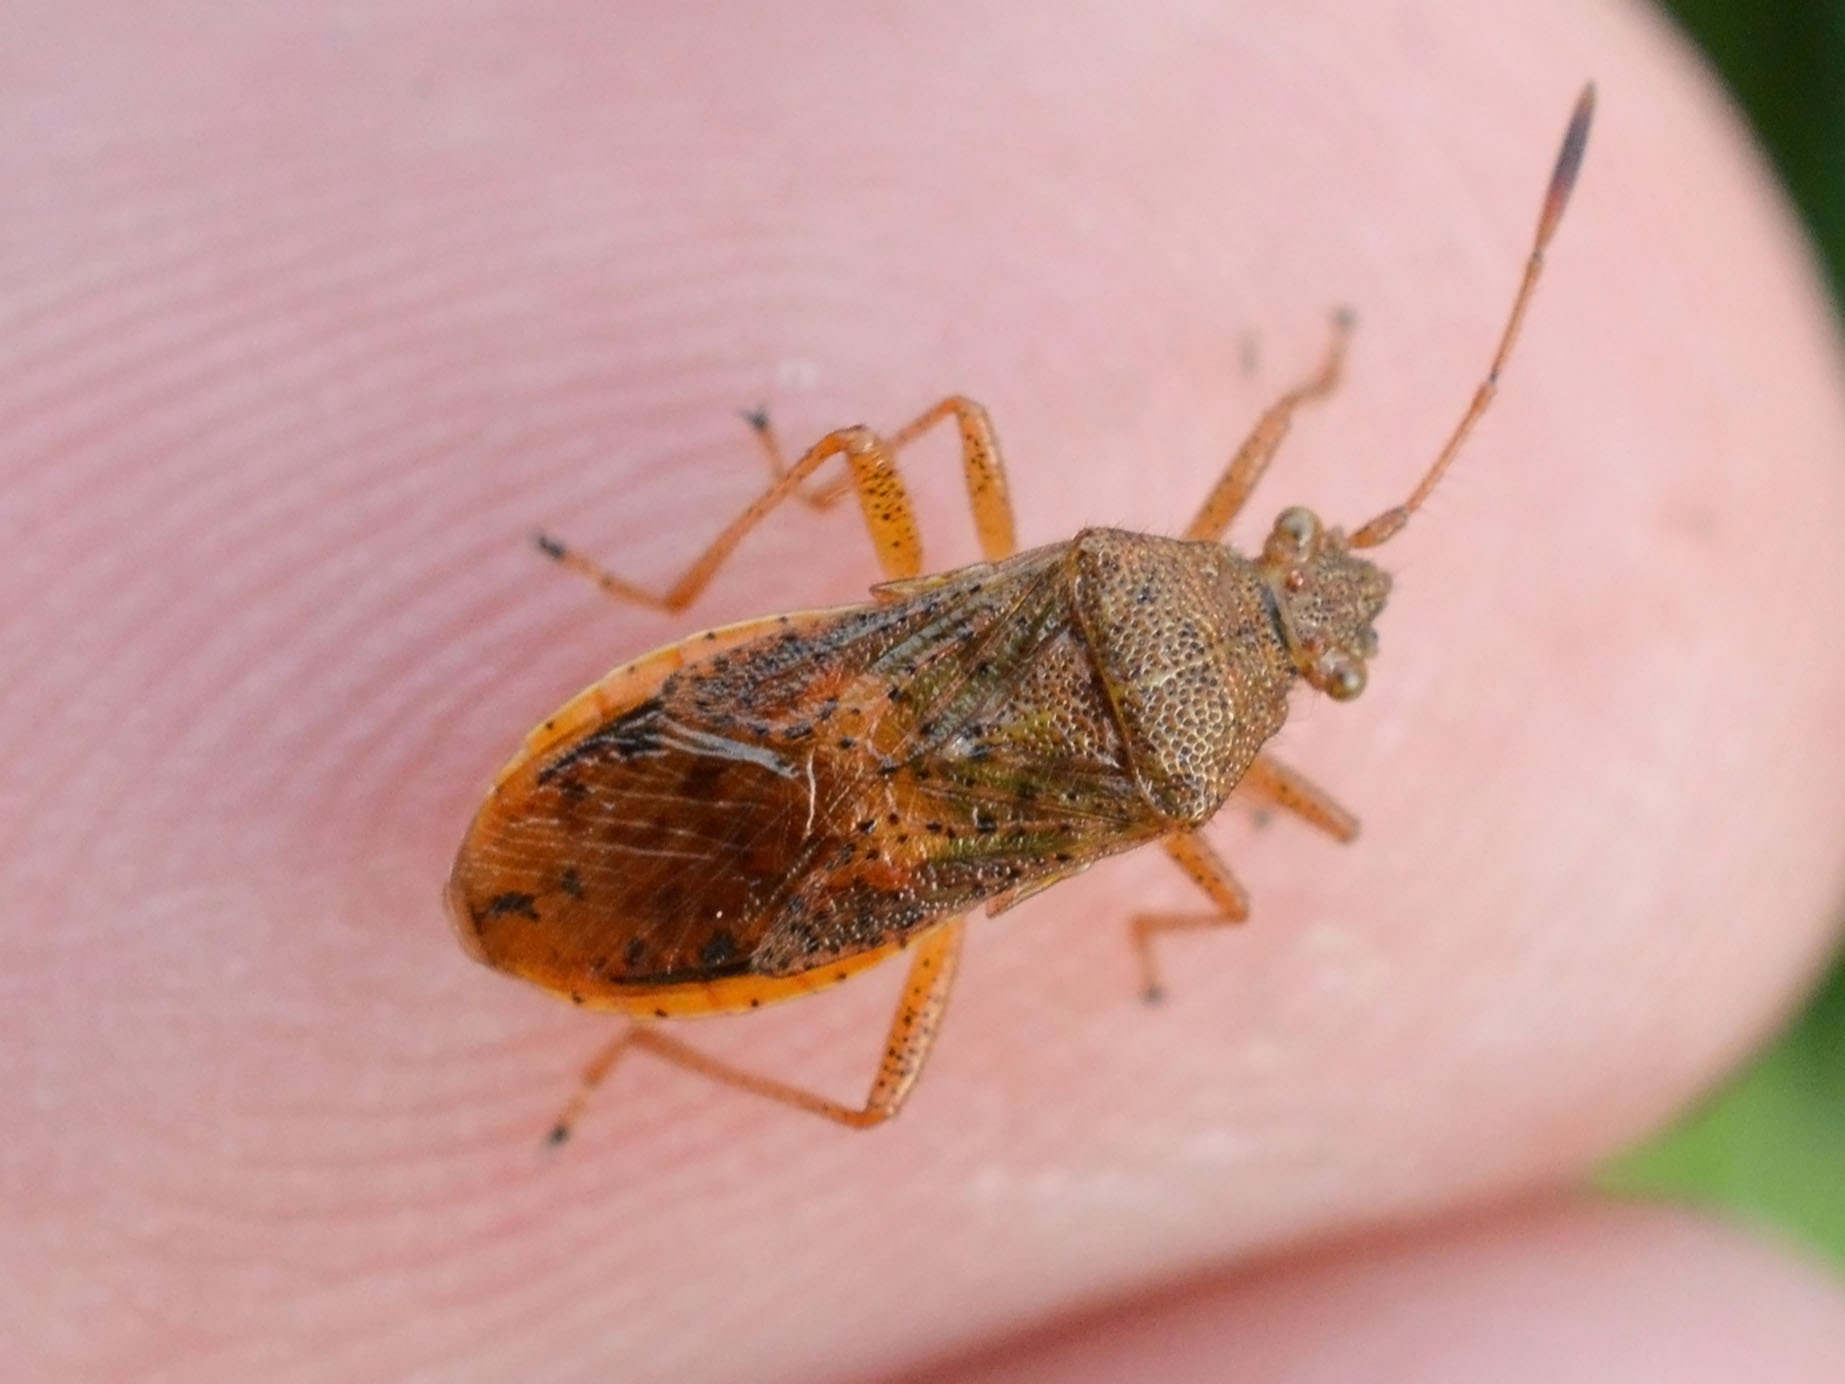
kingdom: Animalia
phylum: Arthropoda
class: Insecta
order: Hemiptera
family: Rhopalidae
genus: Rhopalus
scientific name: Rhopalus maculatus
